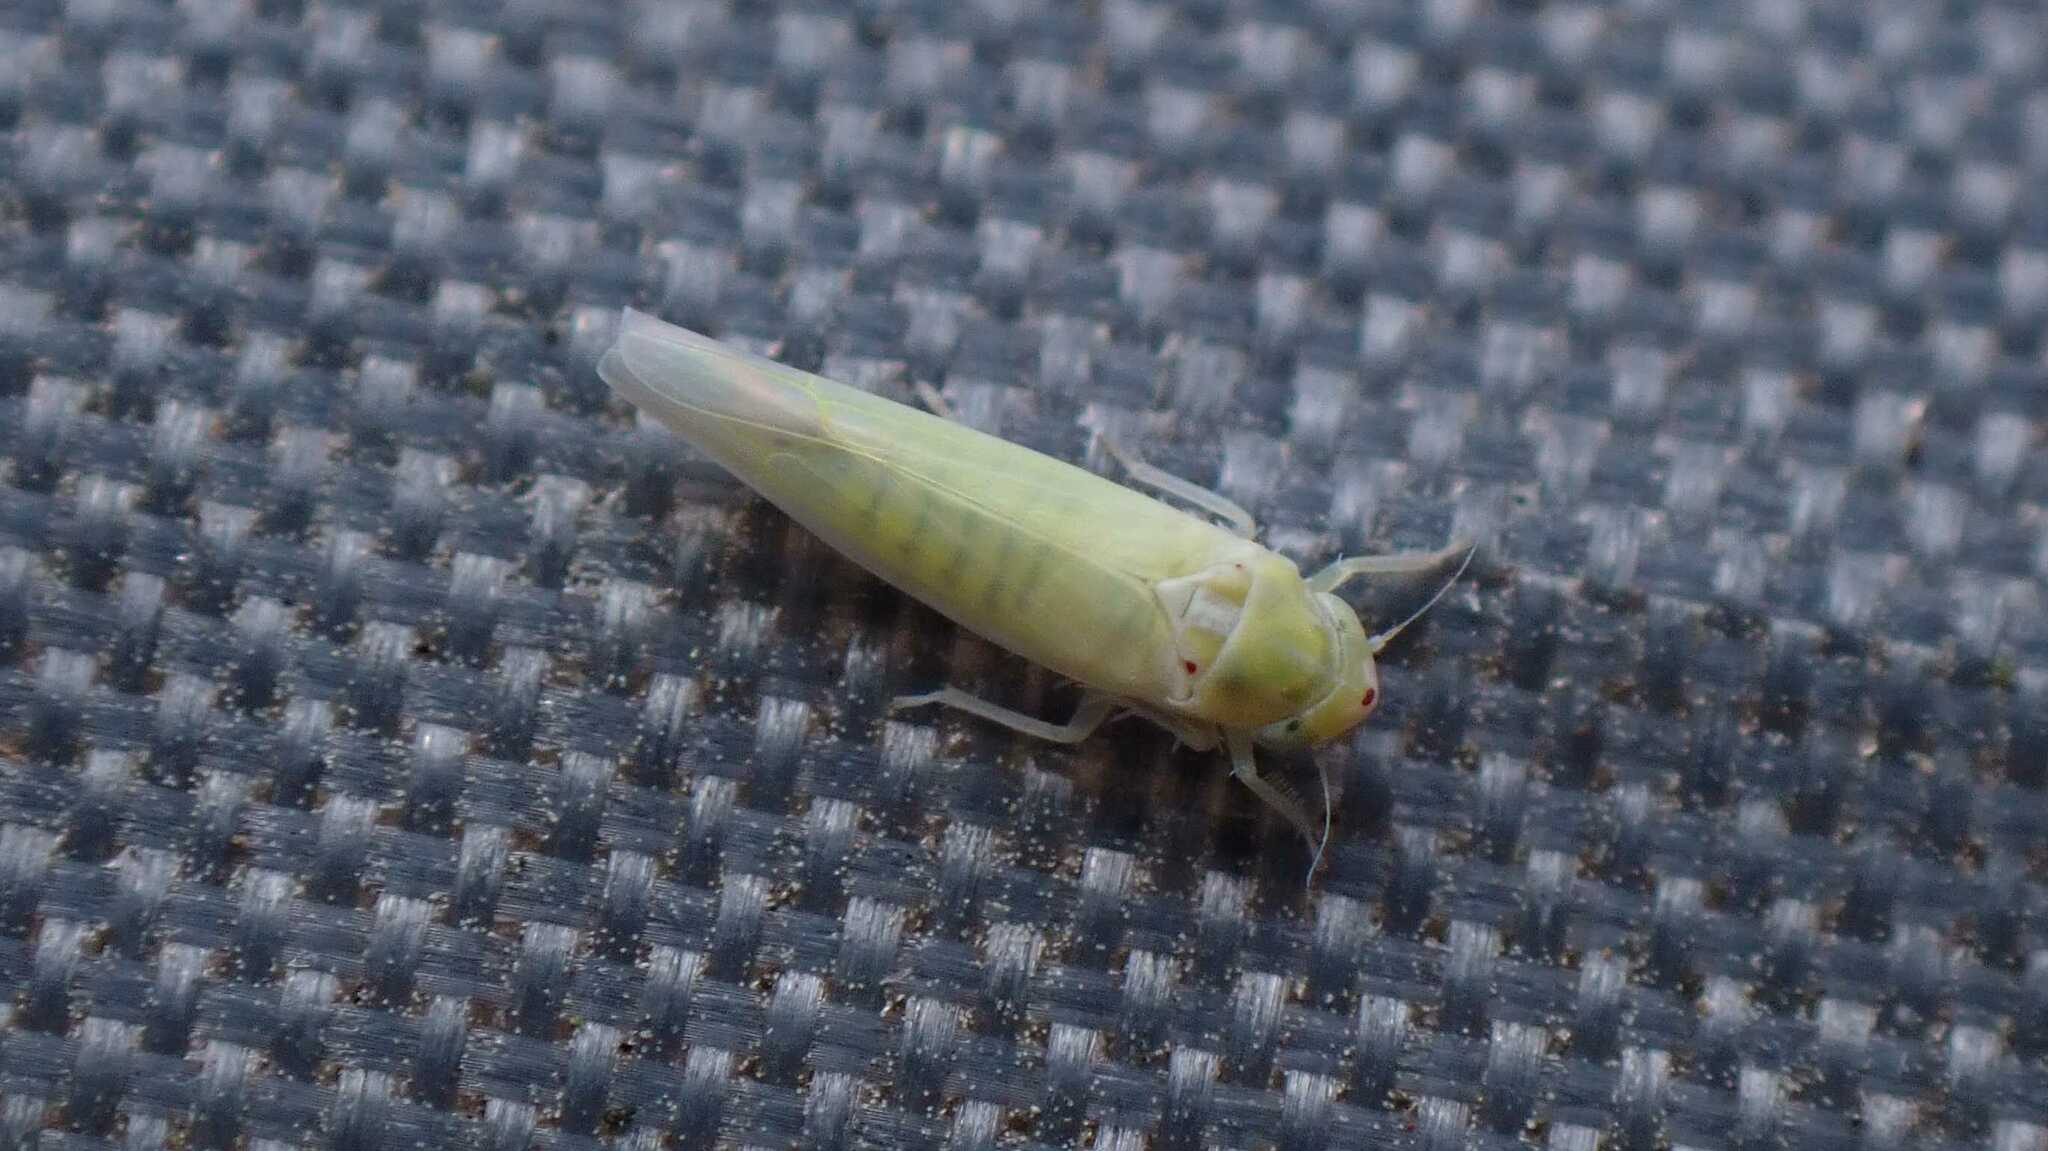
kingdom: Animalia
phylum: Arthropoda
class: Insecta
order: Hemiptera
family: Cicadellidae
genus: Zygina
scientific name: Zygina nivea
